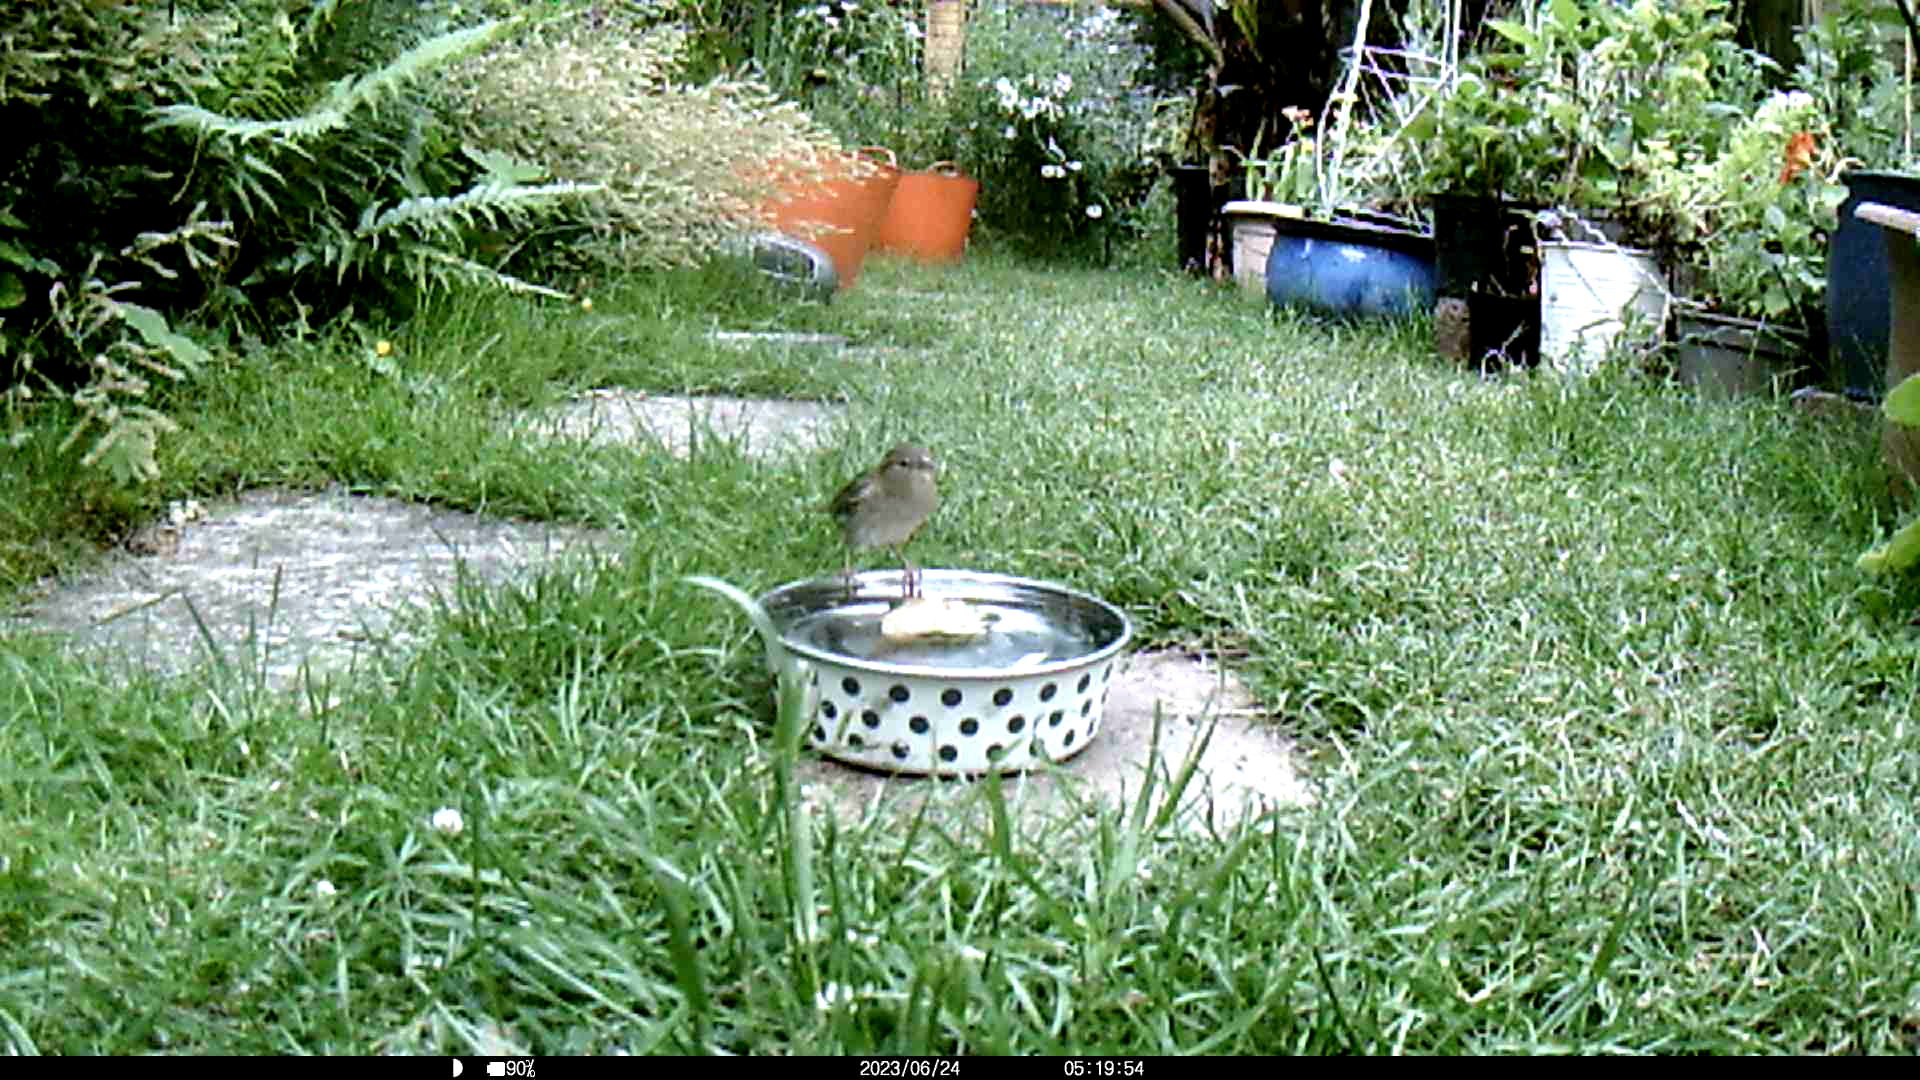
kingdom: Animalia
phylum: Chordata
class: Aves
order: Passeriformes
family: Passeridae
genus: Passer
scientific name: Passer domesticus
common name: House sparrow
